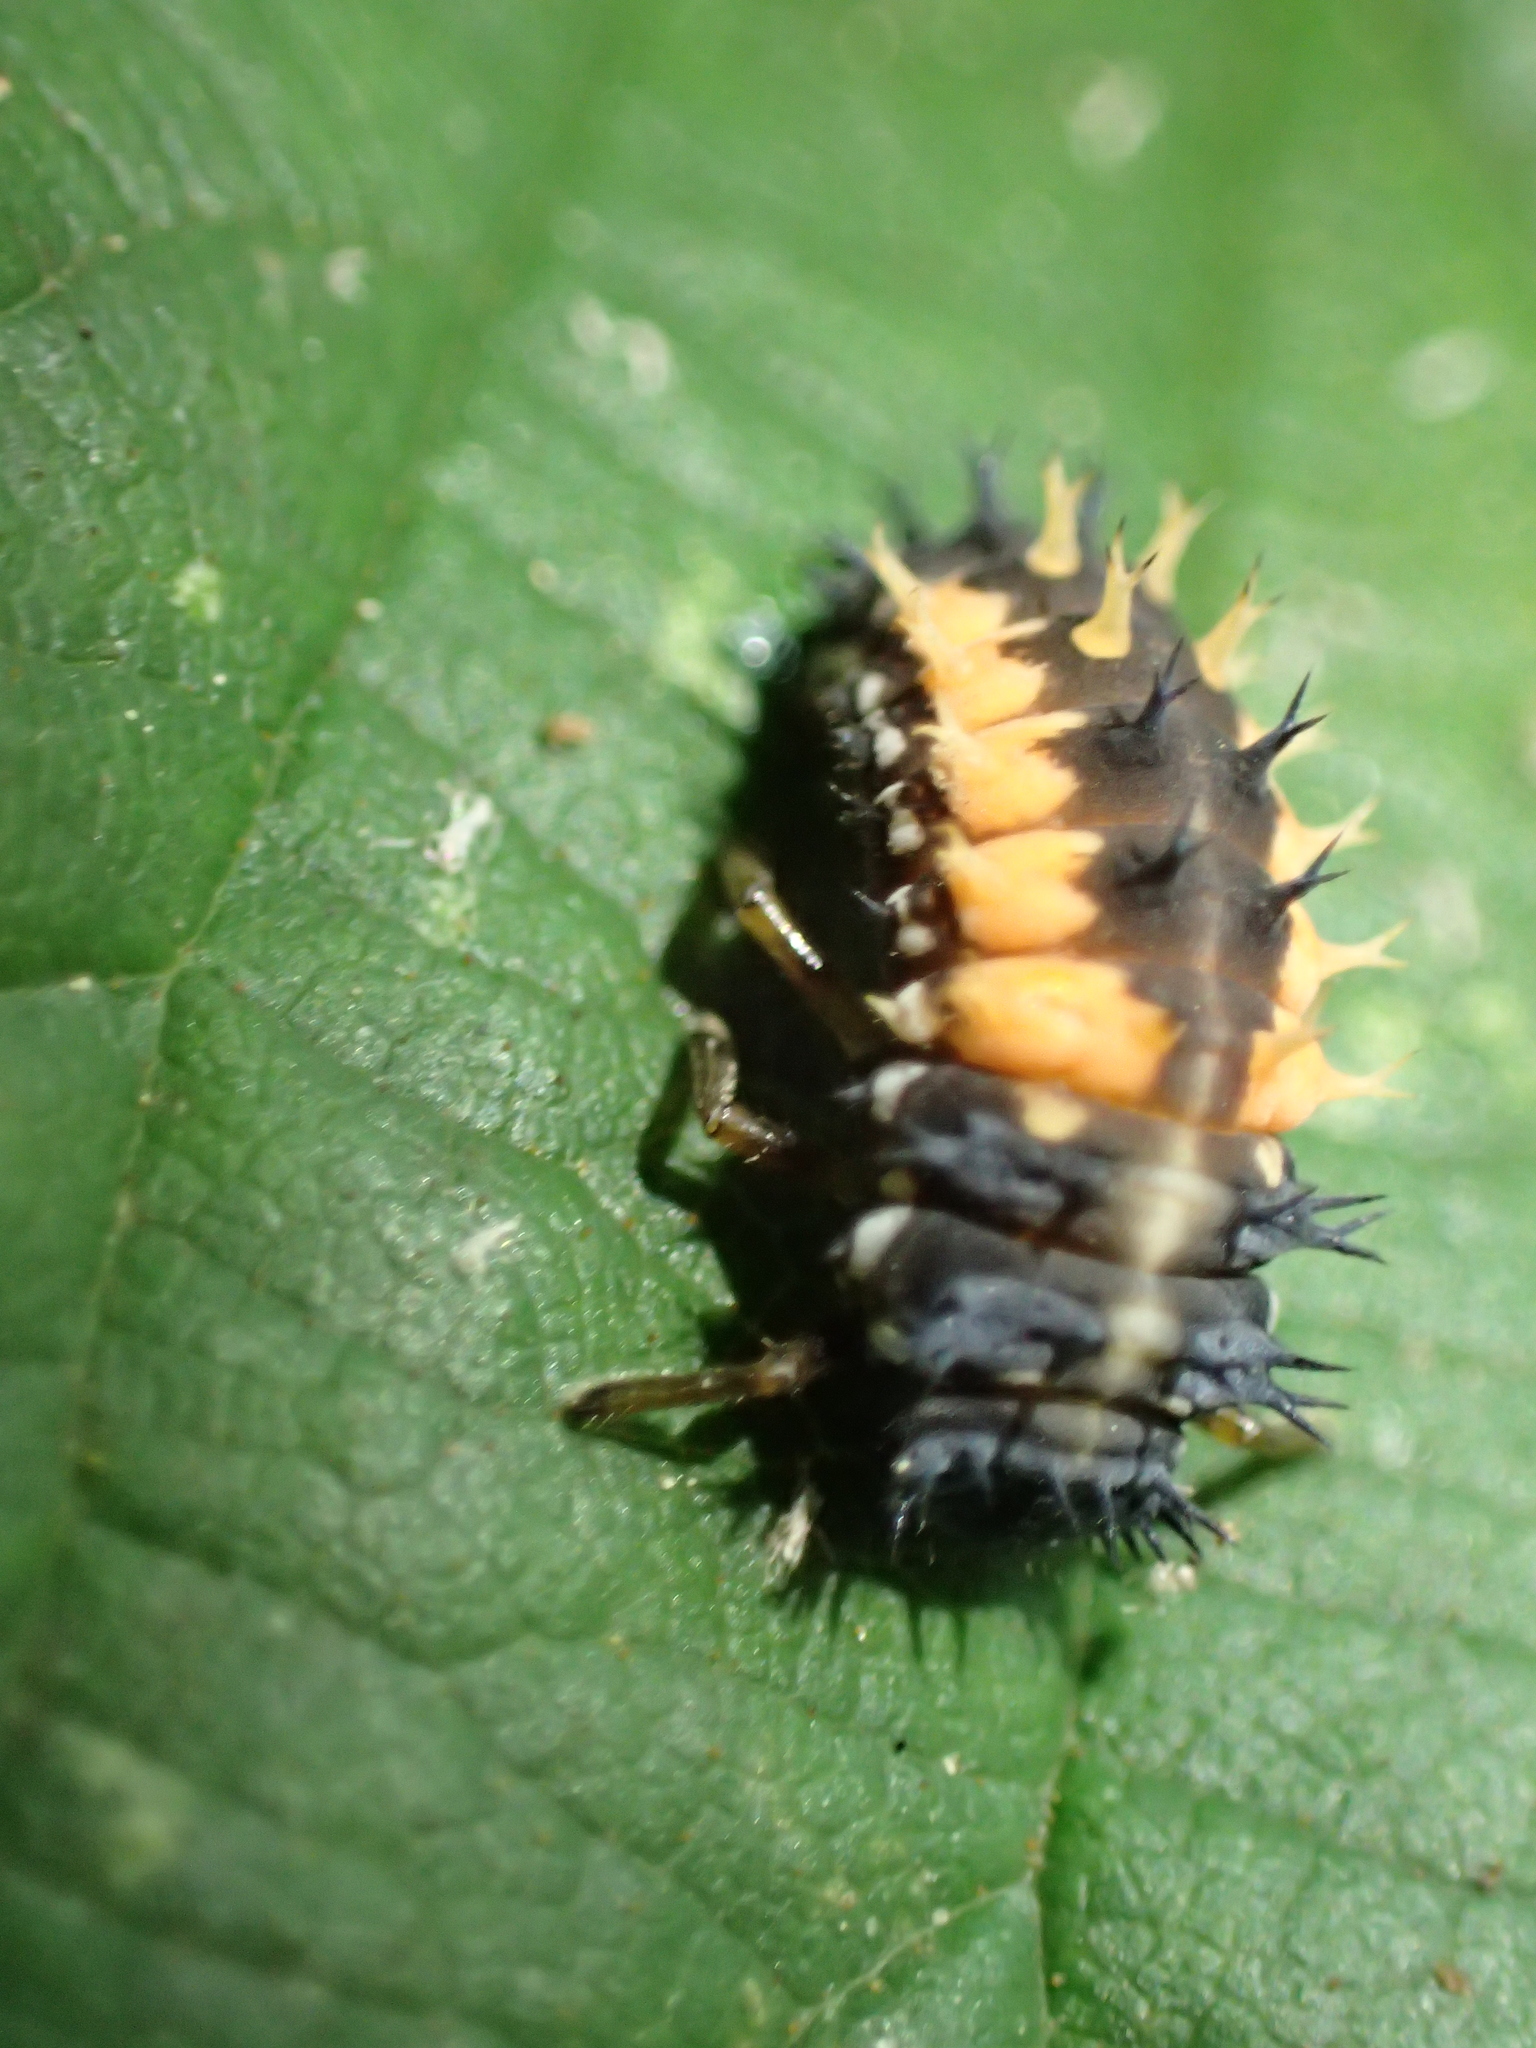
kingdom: Animalia
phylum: Arthropoda
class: Insecta
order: Coleoptera
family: Coccinellidae
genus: Harmonia
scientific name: Harmonia axyridis
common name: Harlequin ladybird
